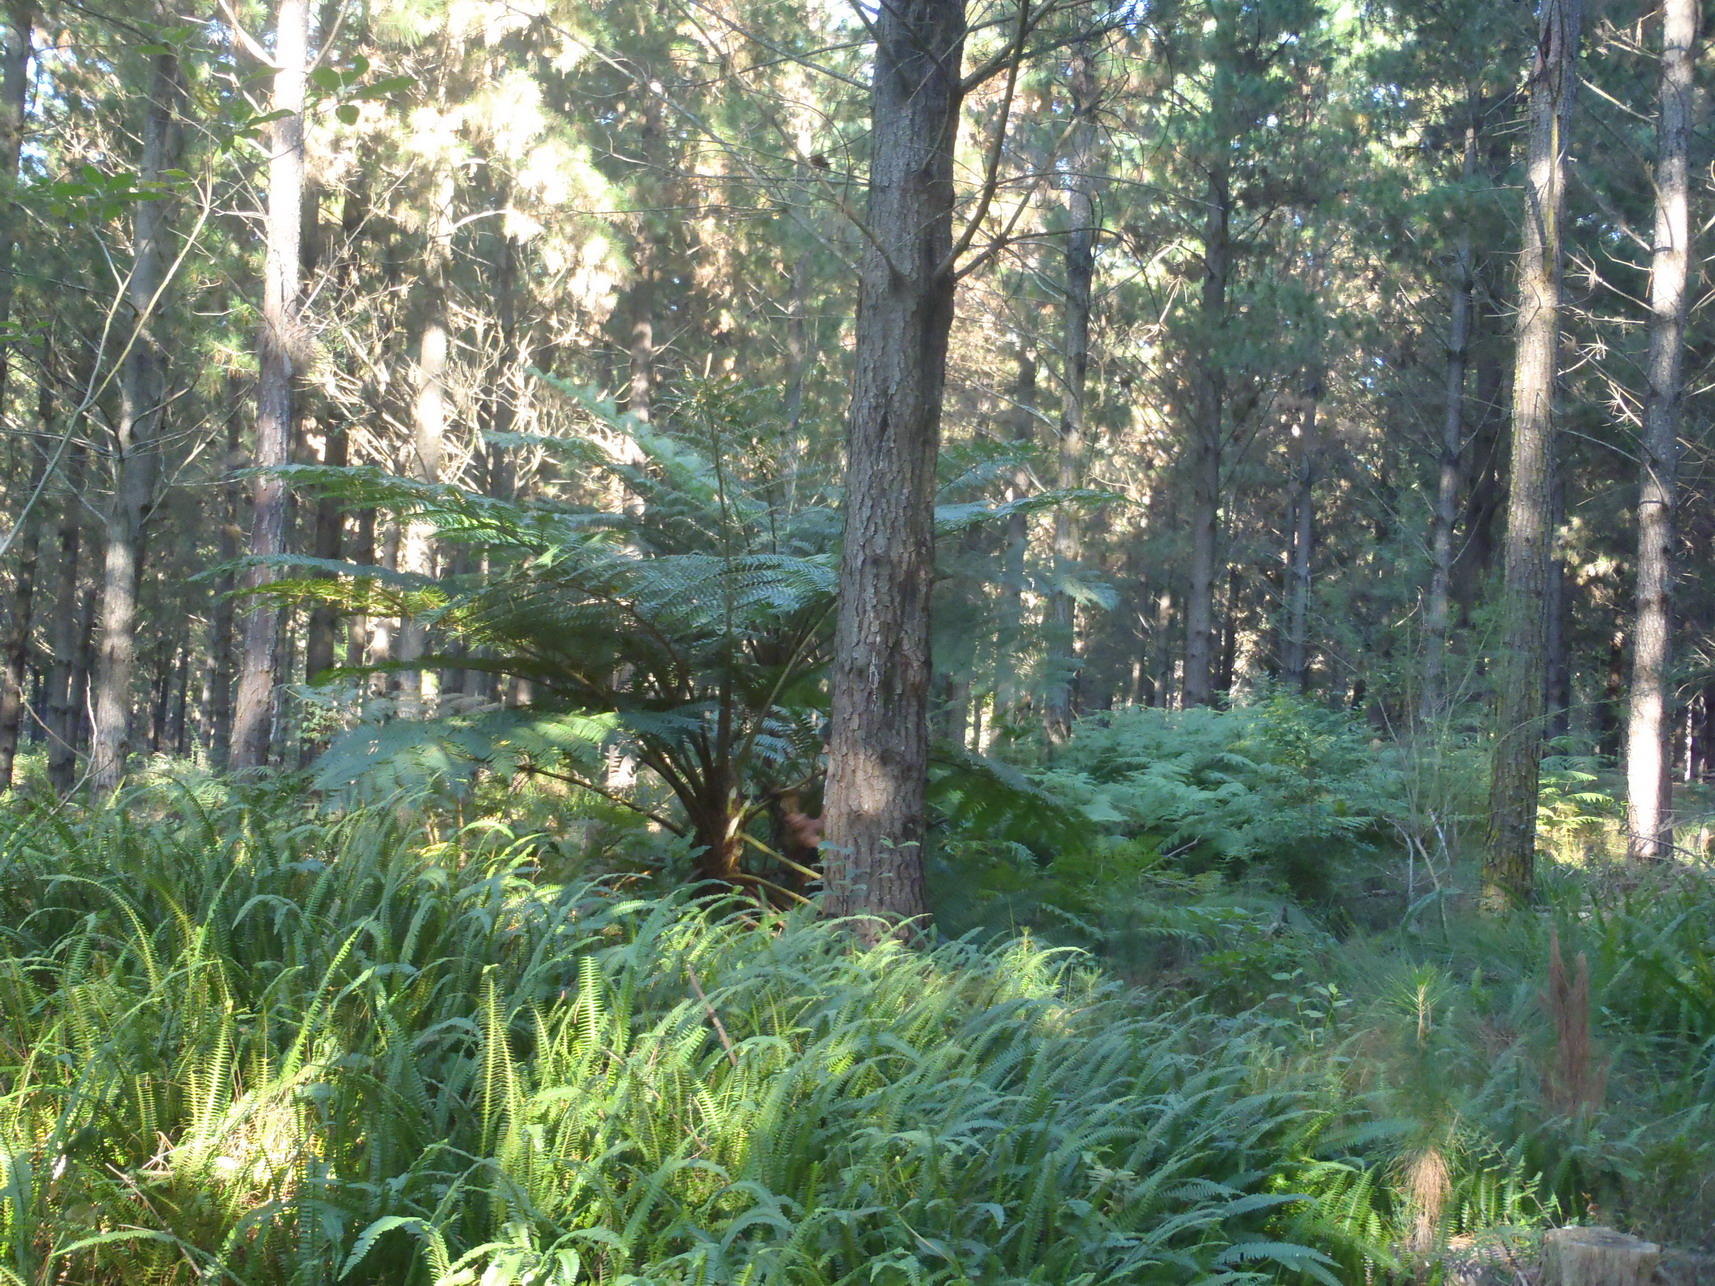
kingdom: Plantae
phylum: Tracheophyta
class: Polypodiopsida
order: Cyatheales
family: Cyatheaceae
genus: Sphaeropteris
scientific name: Sphaeropteris cooperi
